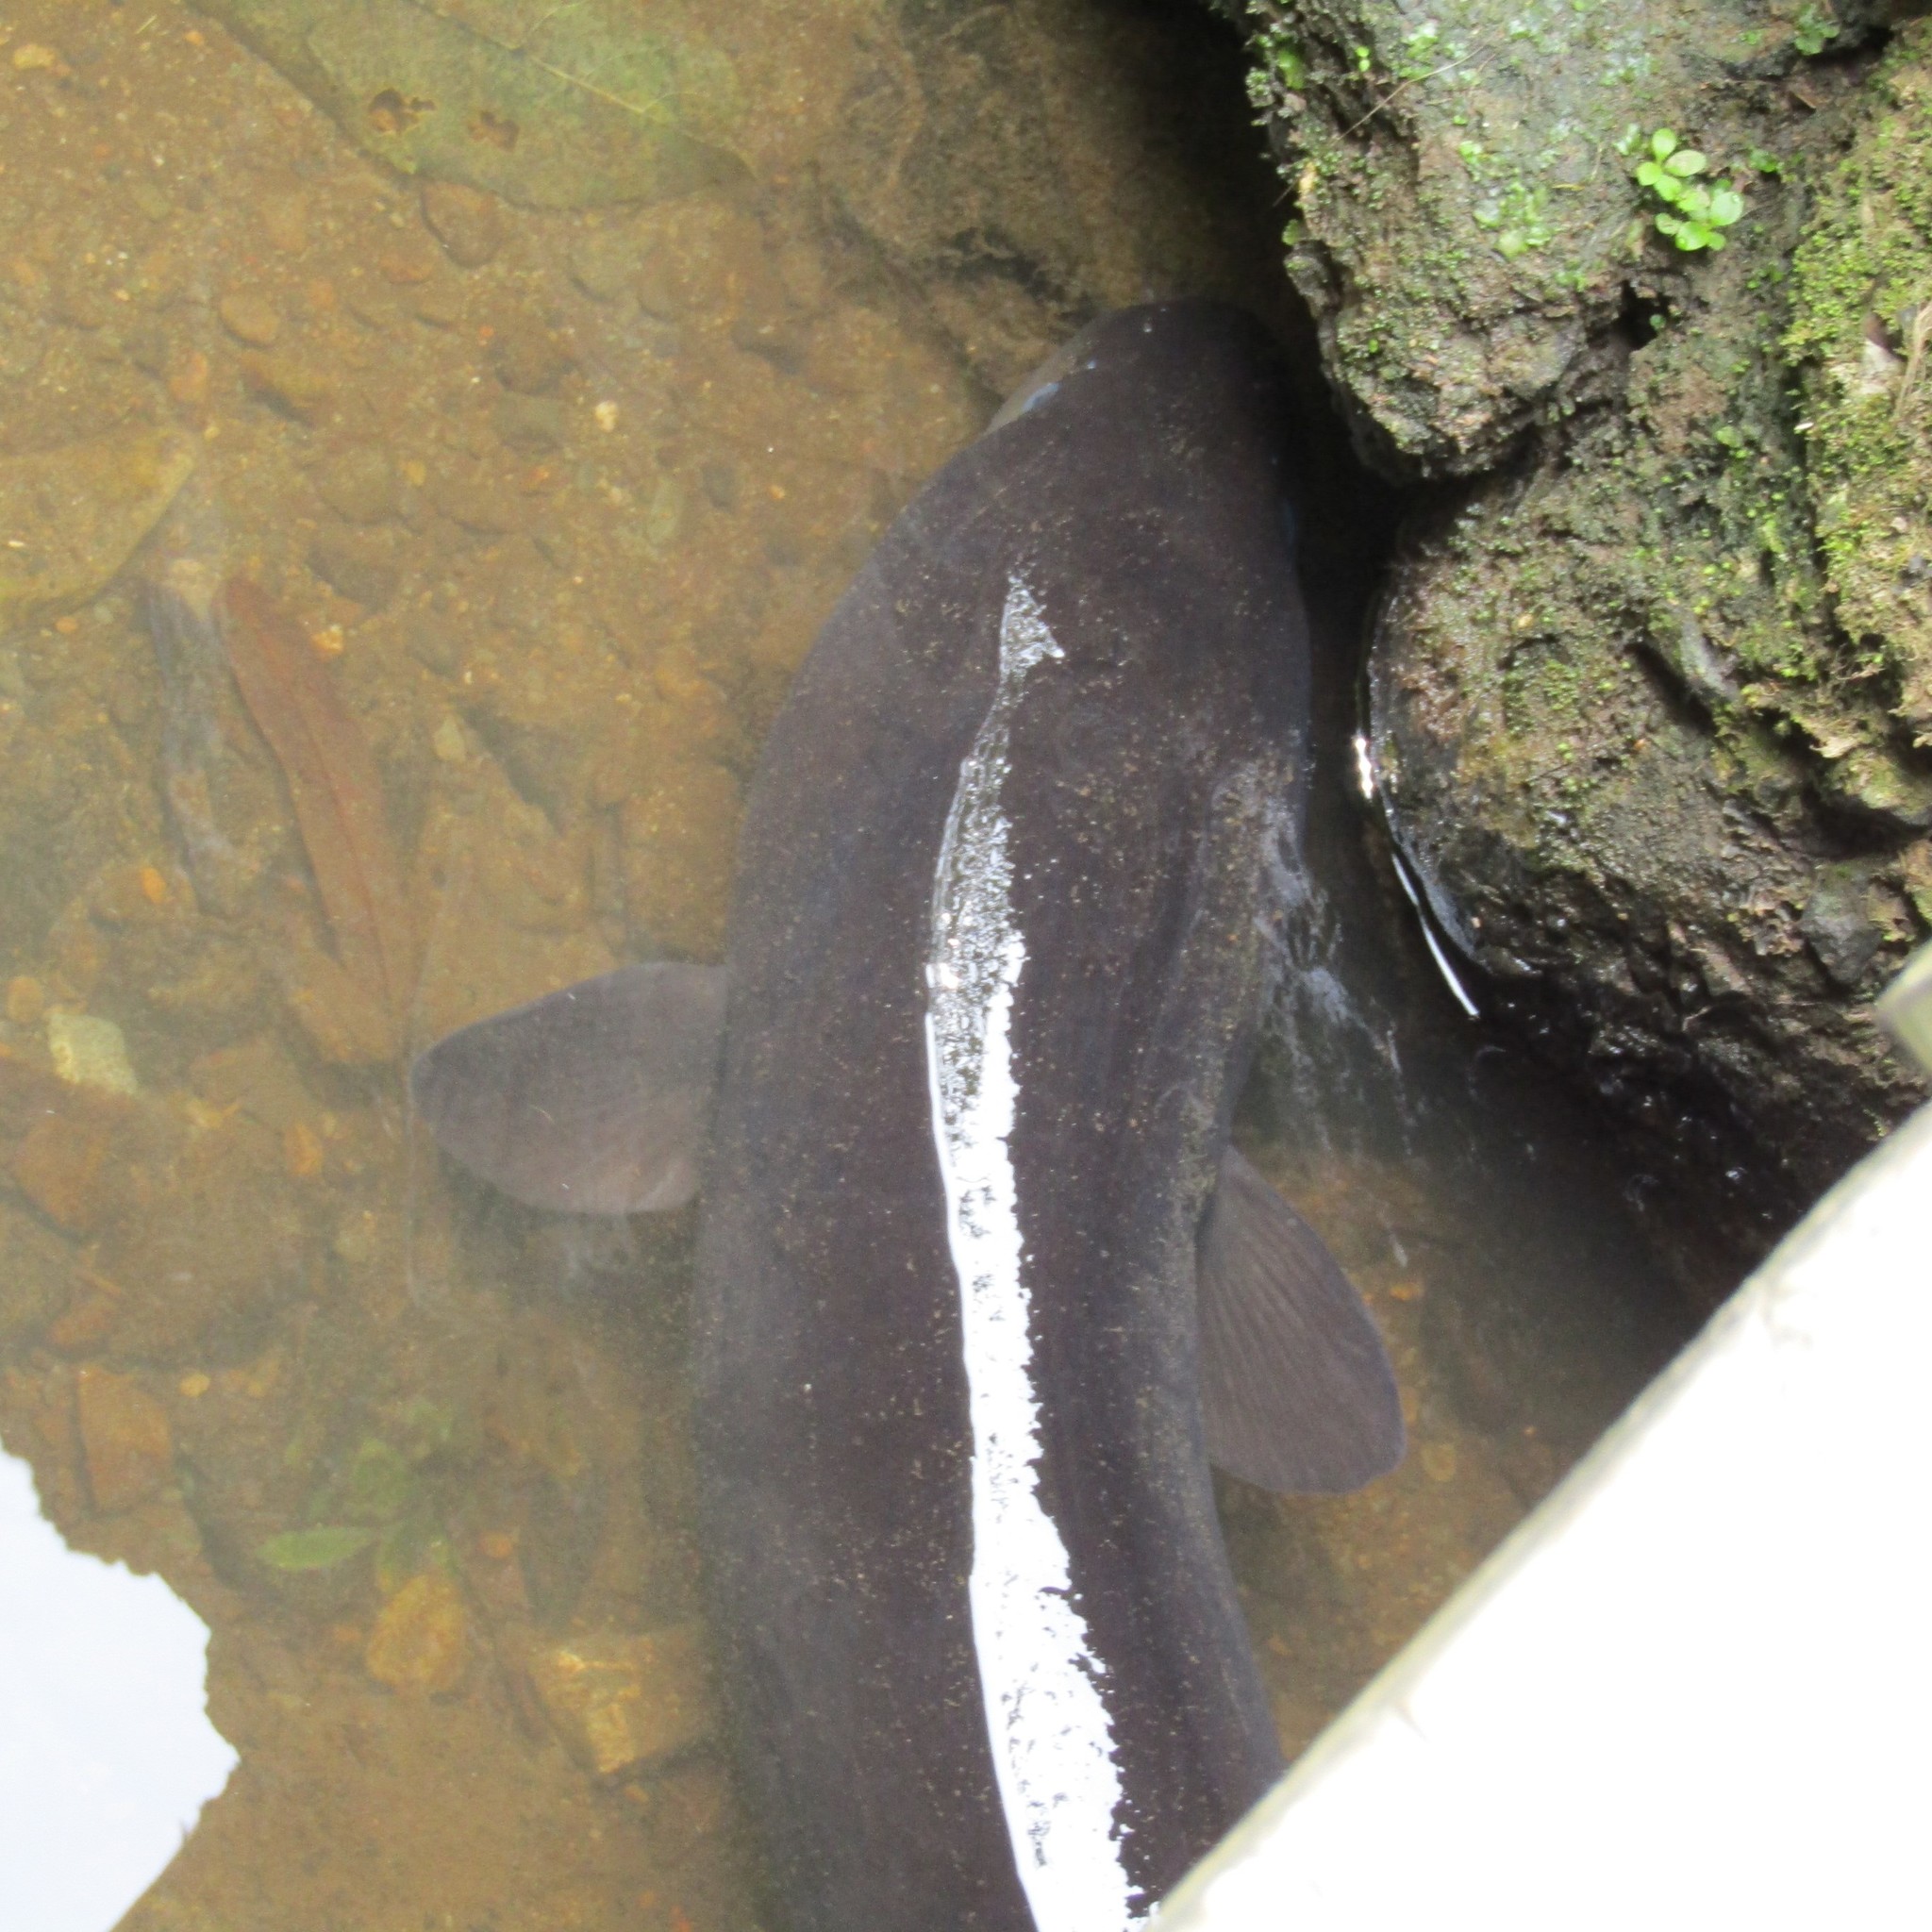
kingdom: Animalia
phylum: Chordata
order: Anguilliformes
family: Anguillidae
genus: Anguilla
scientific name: Anguilla dieffenbachii
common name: New zealand longfin eel
